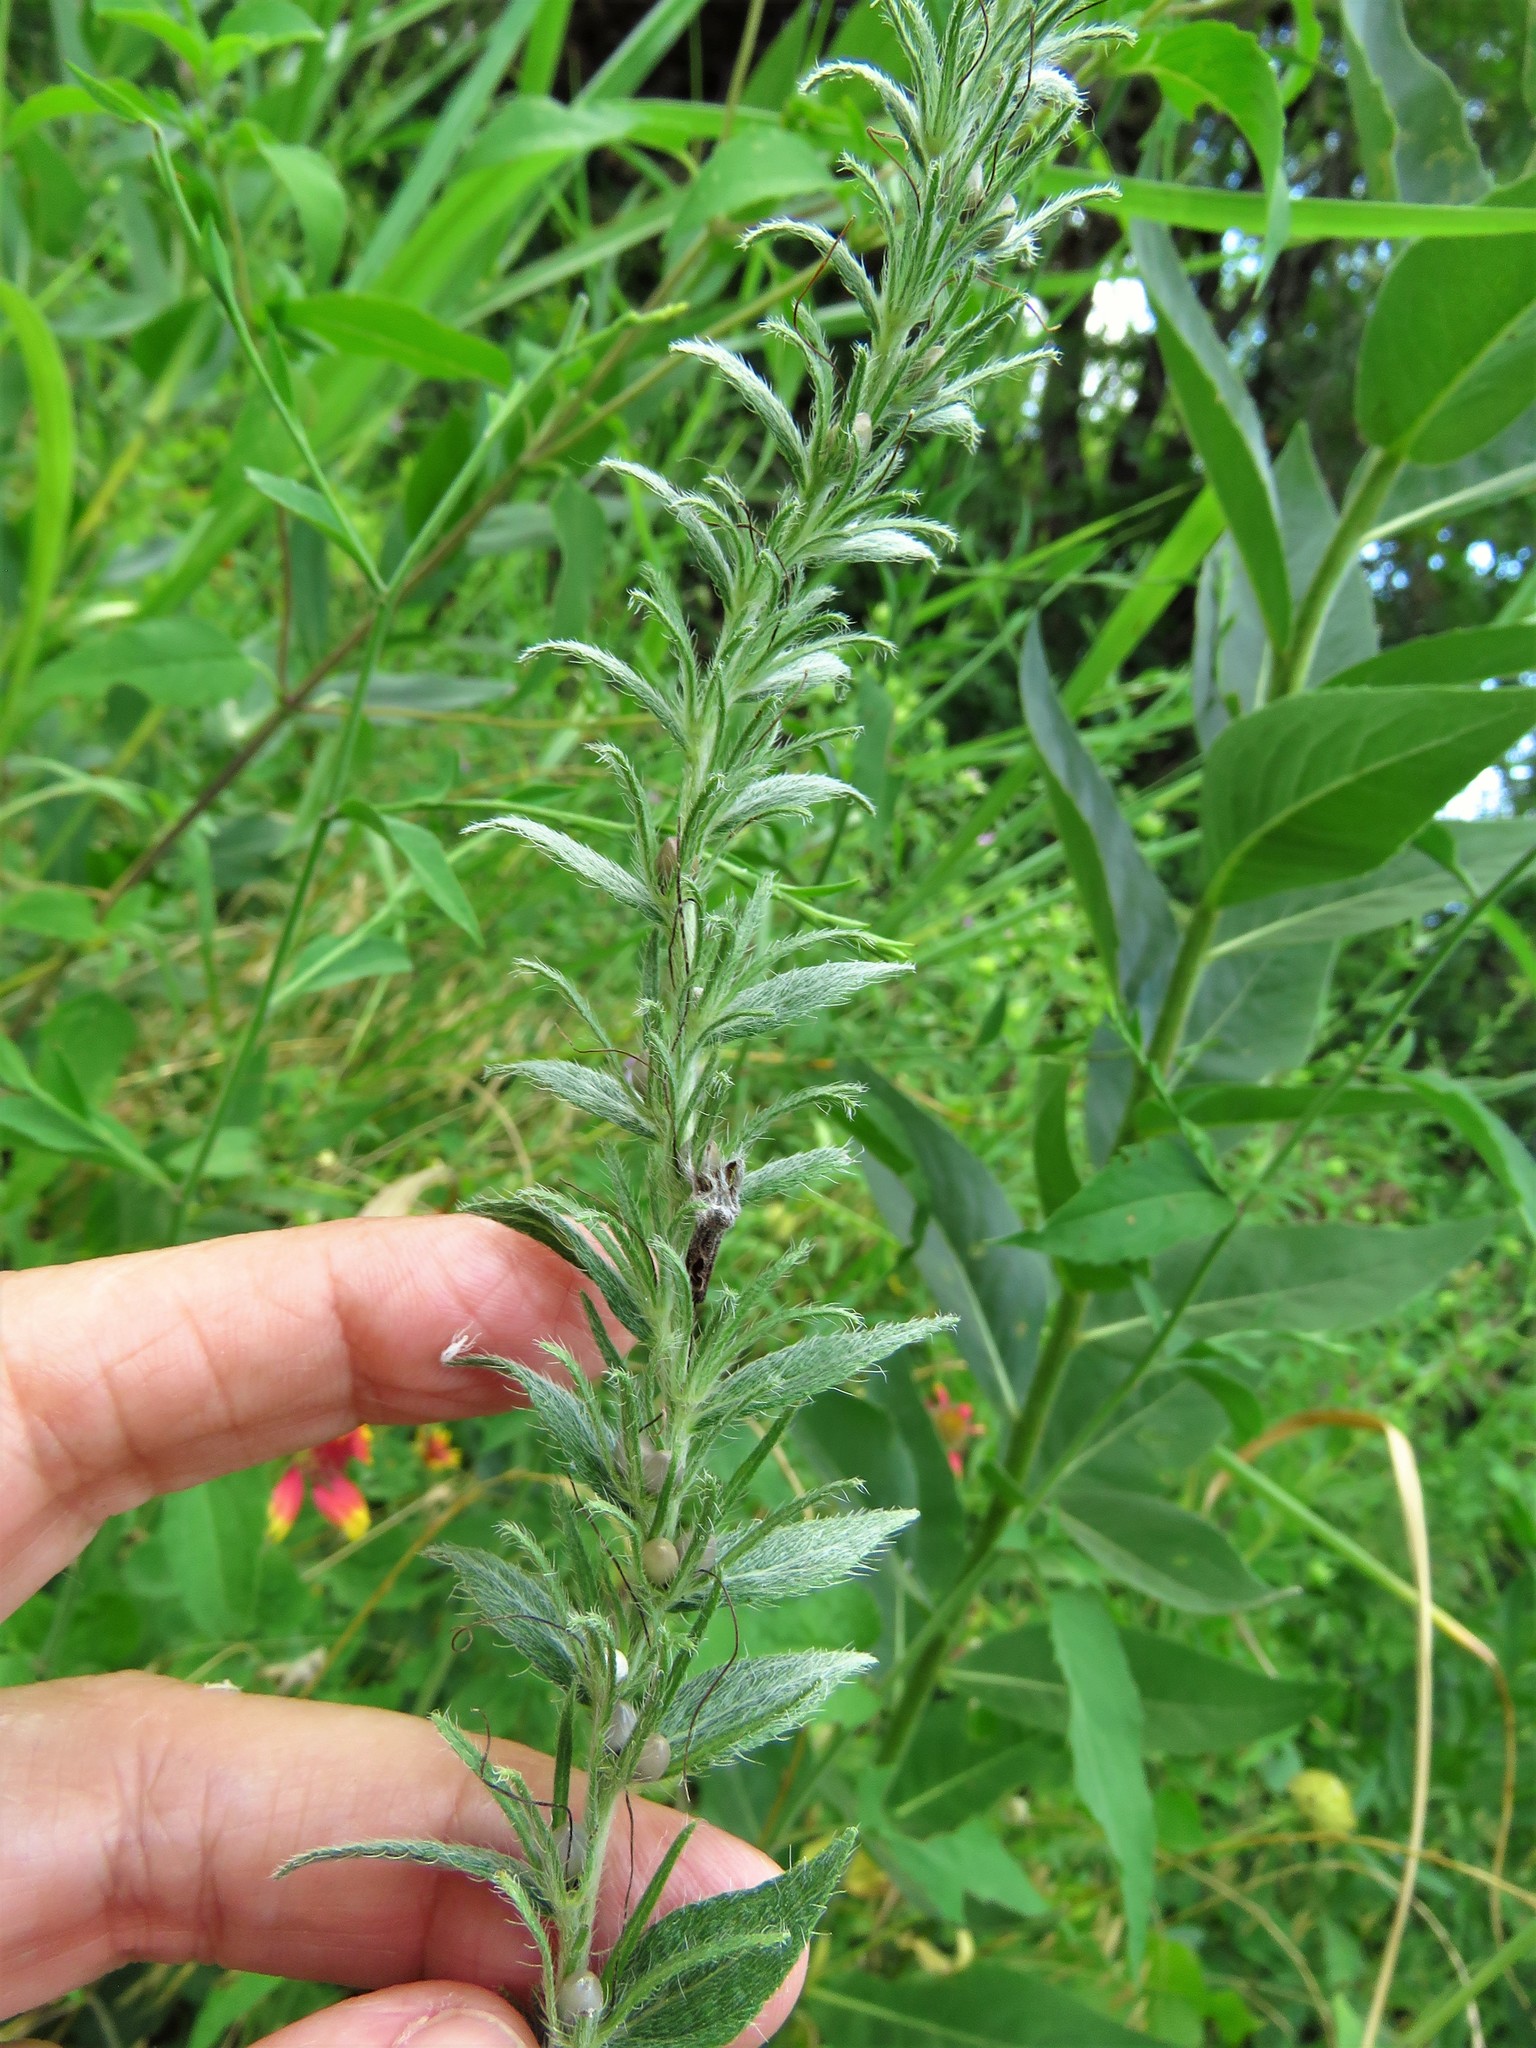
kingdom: Plantae
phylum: Tracheophyta
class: Magnoliopsida
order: Boraginales
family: Boraginaceae
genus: Lithospermum
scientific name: Lithospermum caroliniense
